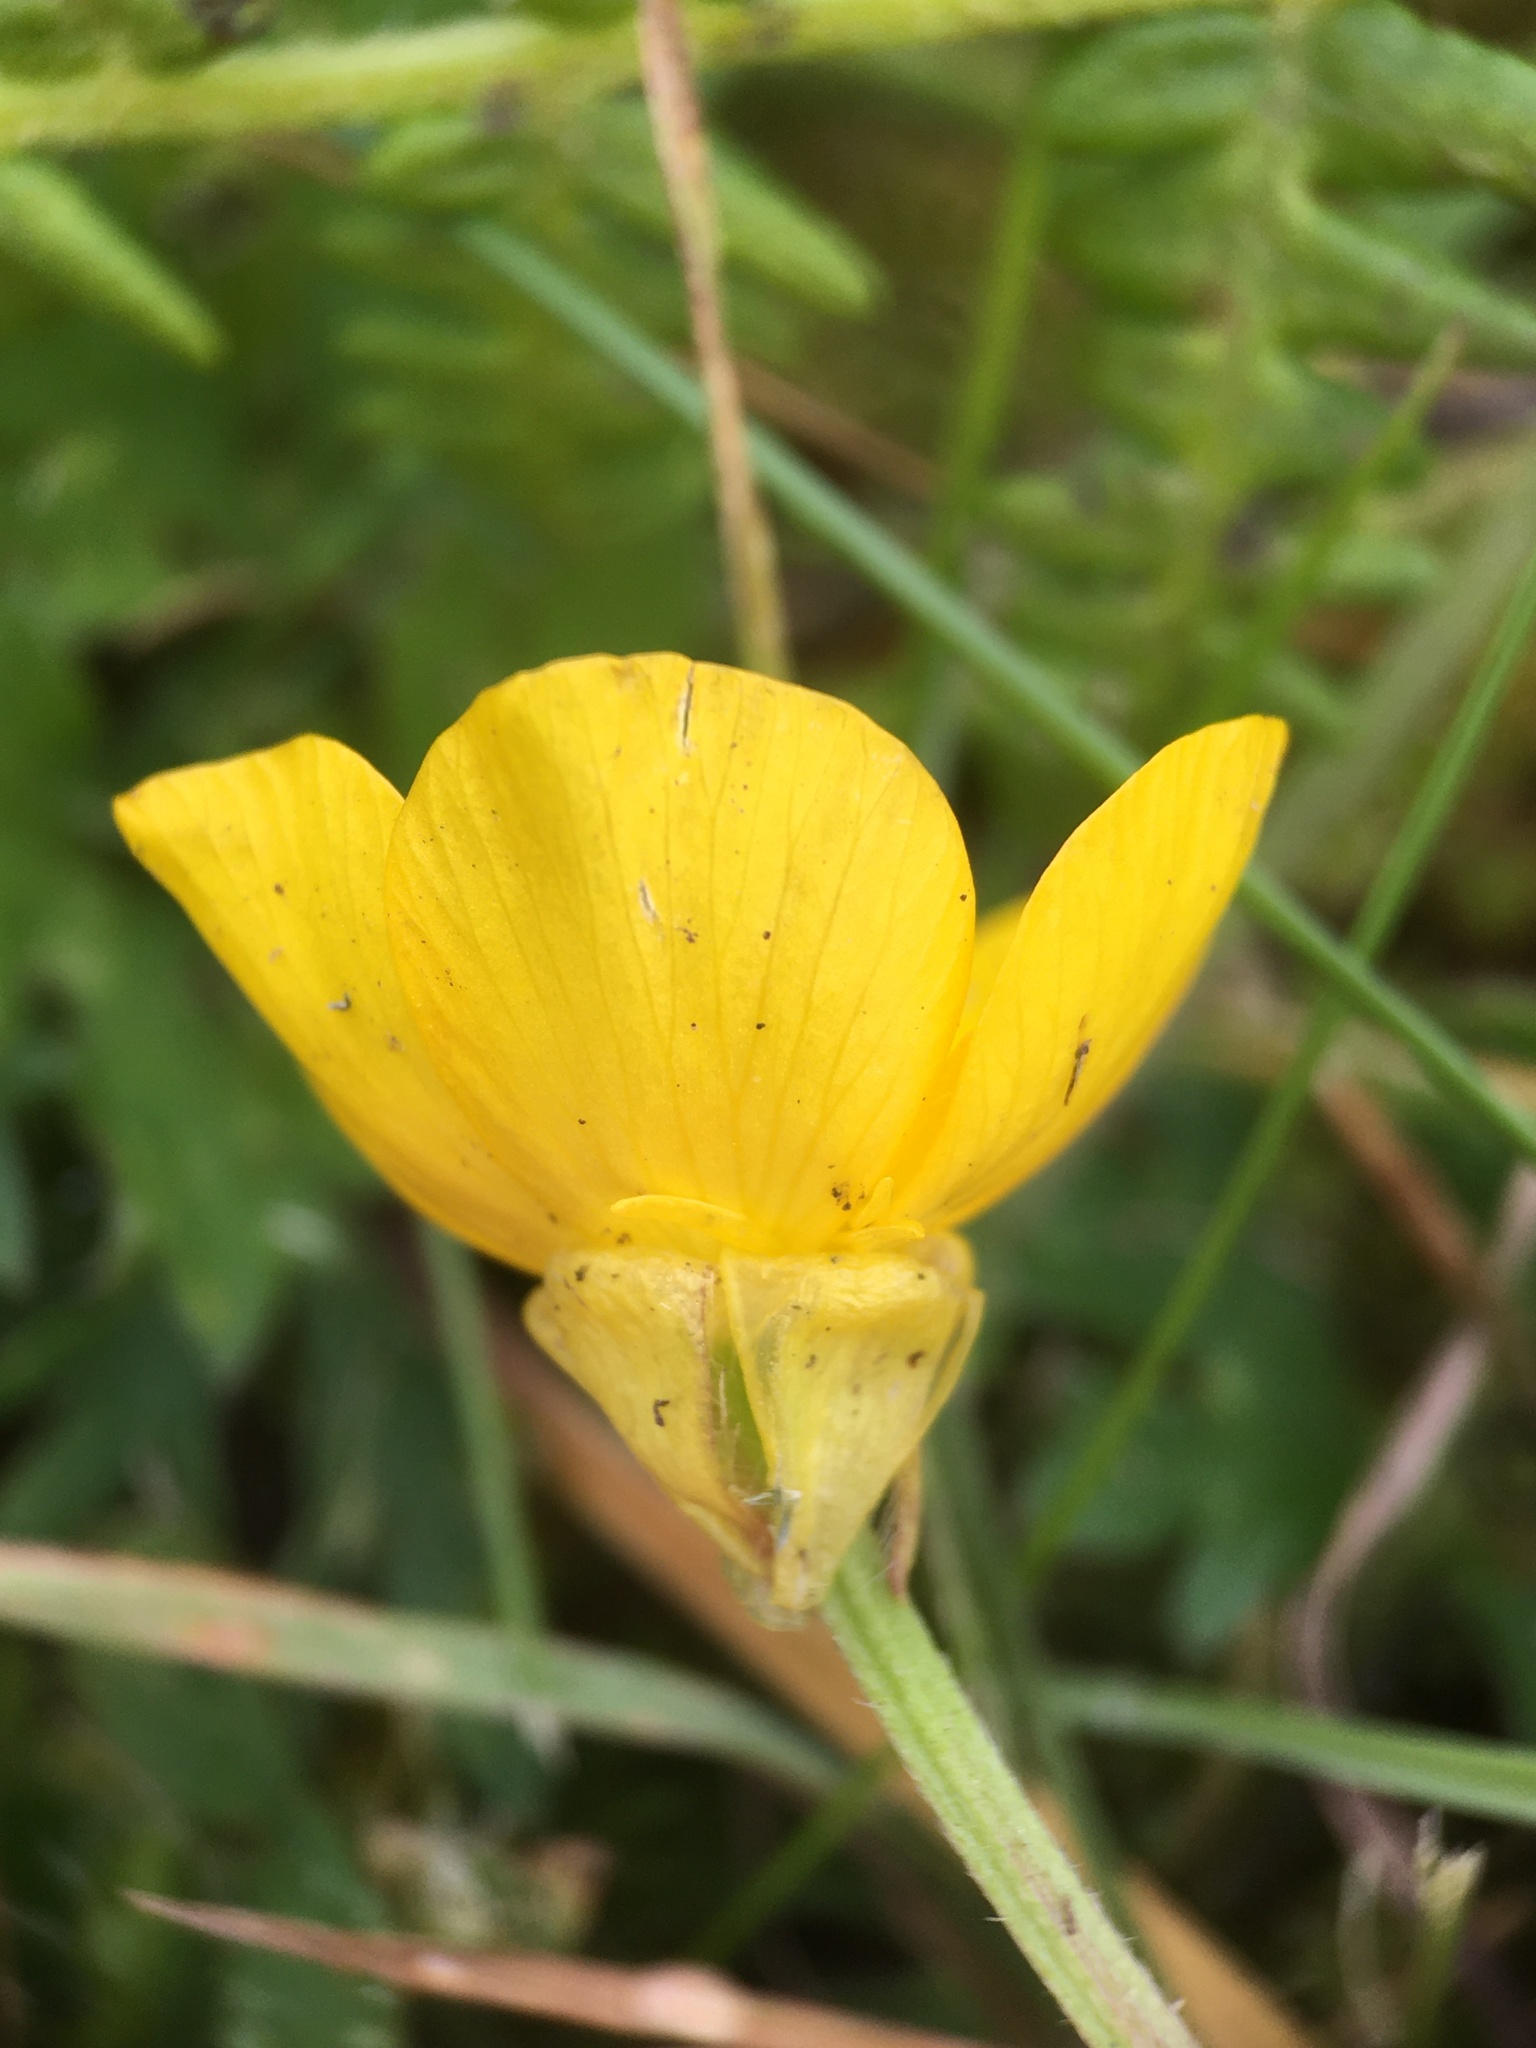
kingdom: Plantae
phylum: Tracheophyta
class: Magnoliopsida
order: Ranunculales
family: Ranunculaceae
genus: Ranunculus
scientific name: Ranunculus bulbosus
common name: Bulbous buttercup
